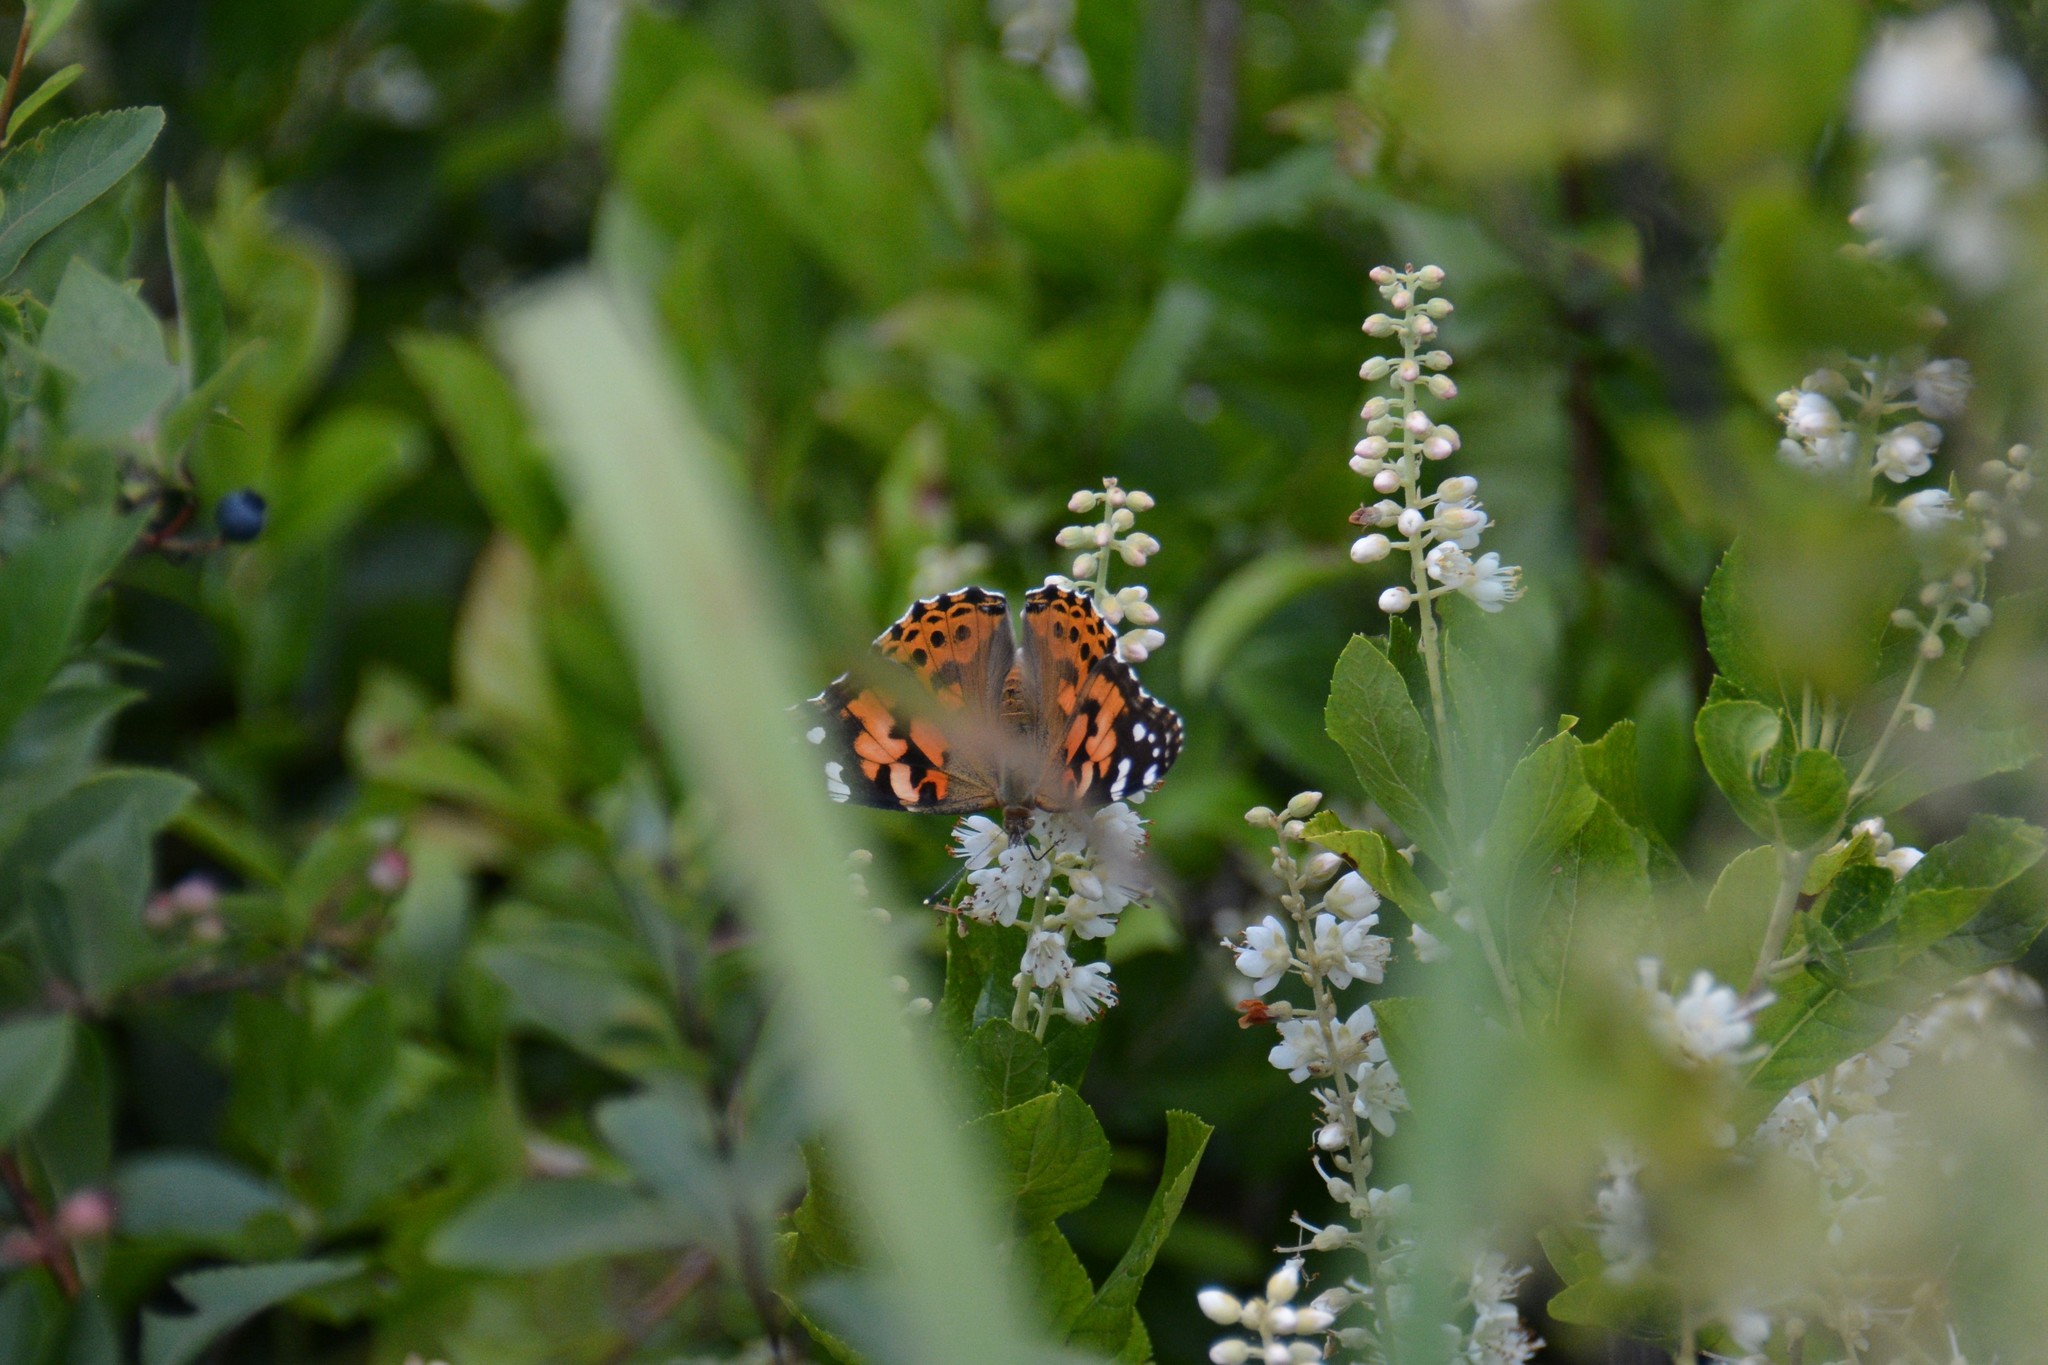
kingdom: Animalia
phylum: Arthropoda
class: Insecta
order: Lepidoptera
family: Nymphalidae
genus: Vanessa
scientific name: Vanessa cardui
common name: Painted lady
